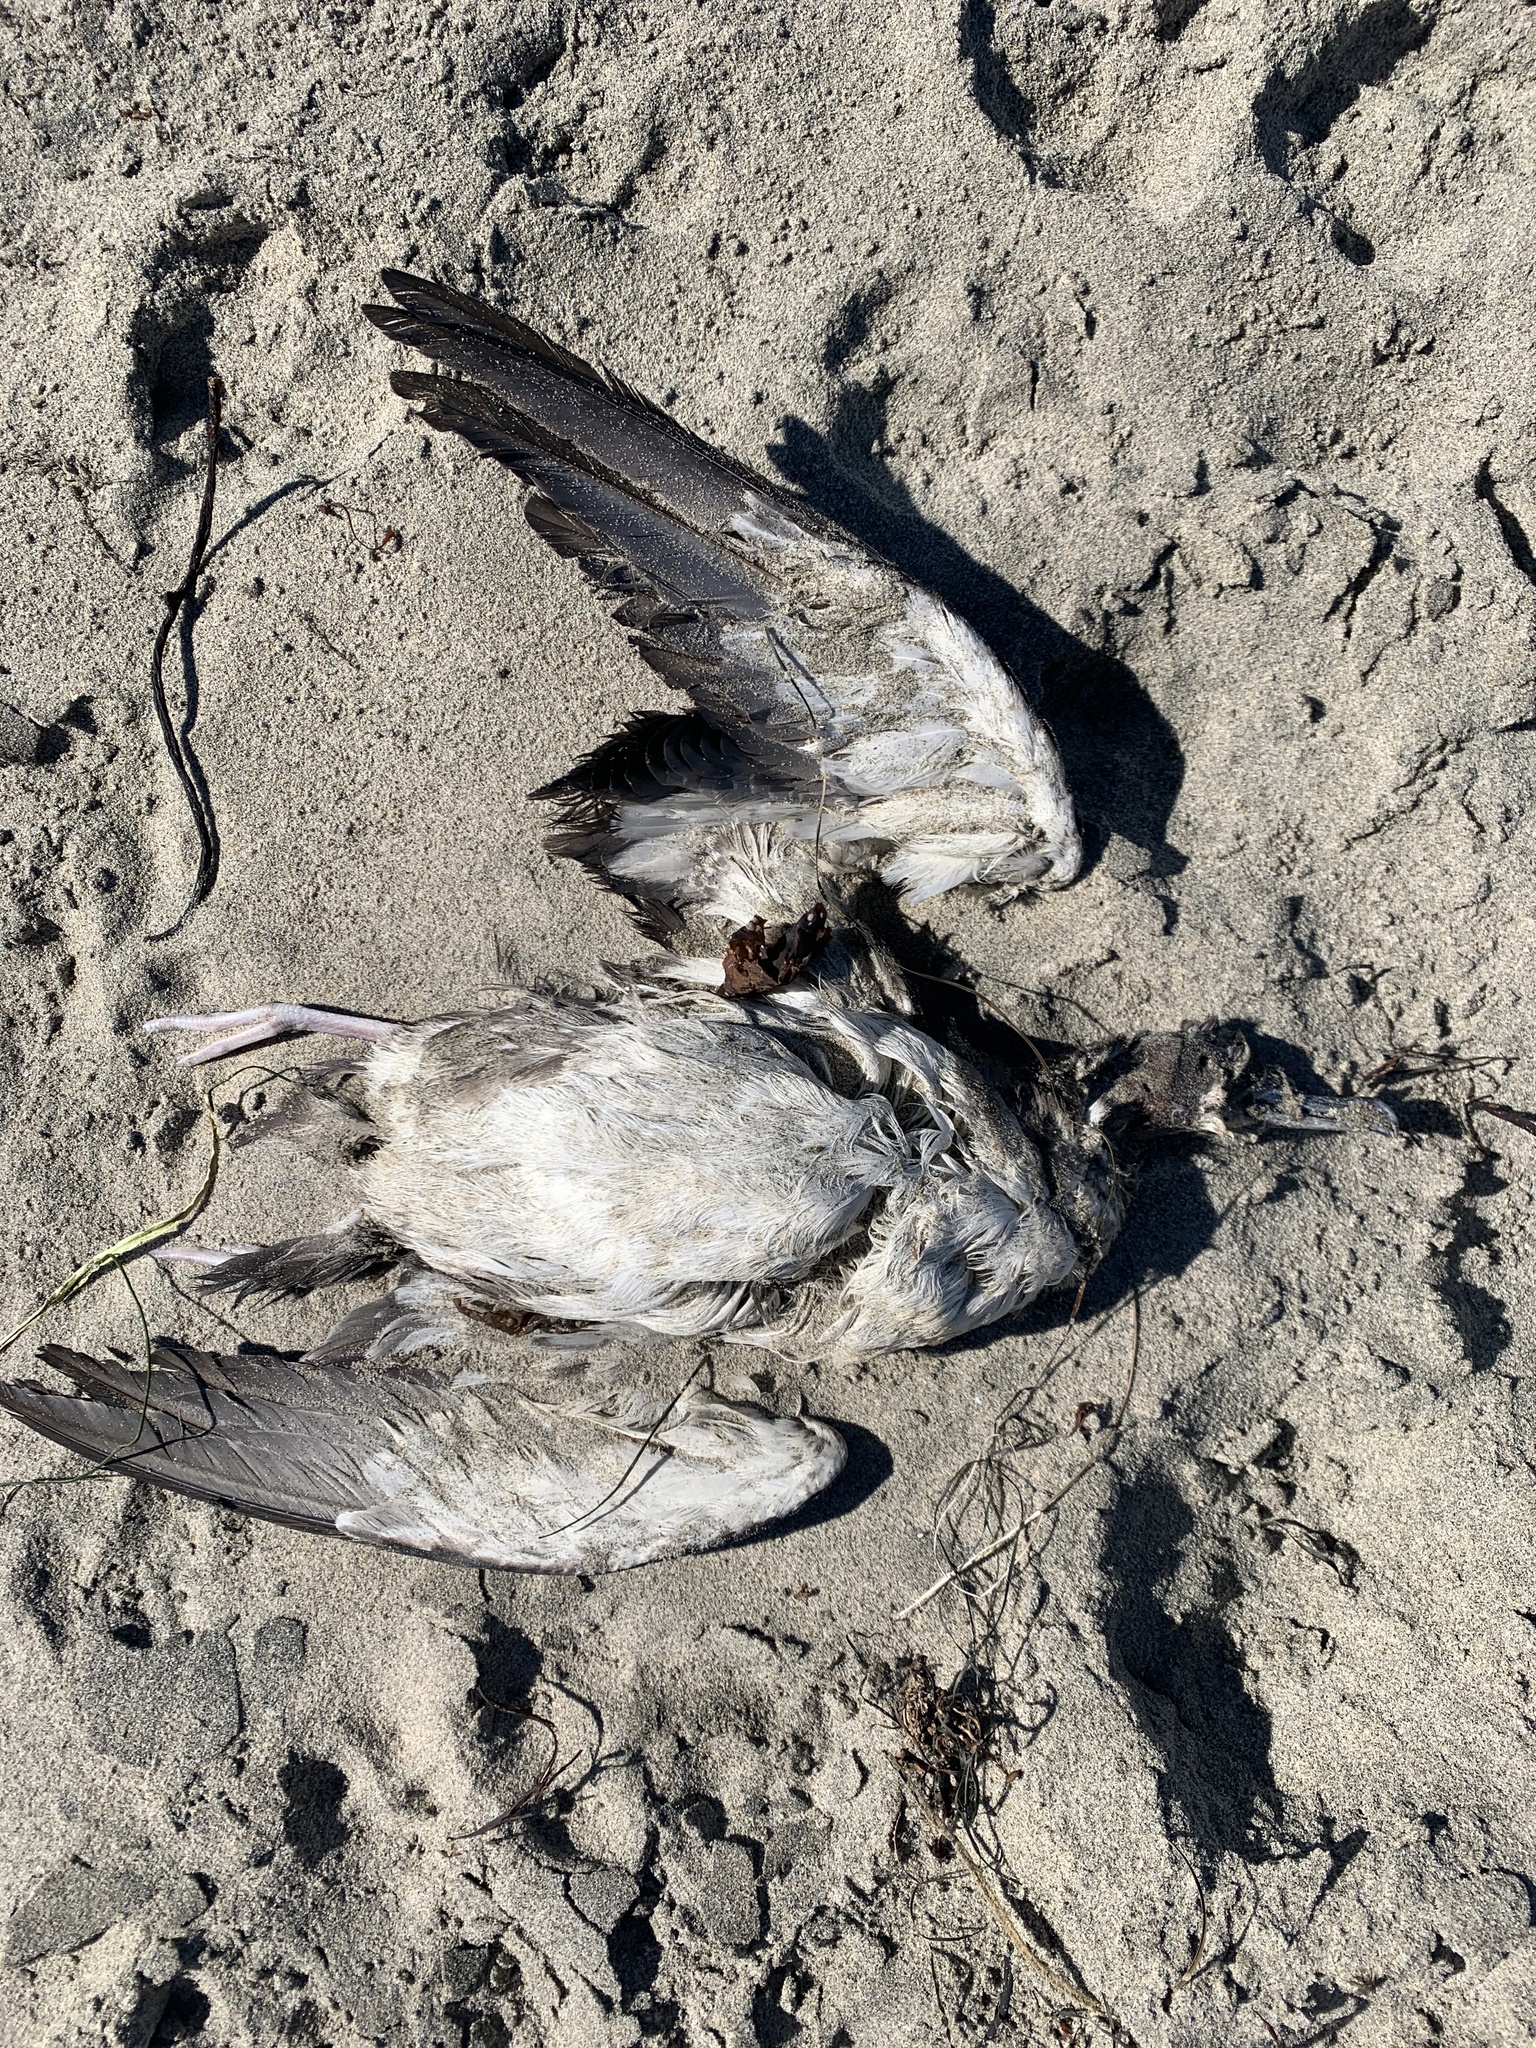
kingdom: Animalia
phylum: Chordata
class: Aves
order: Procellariiformes
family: Procellariidae
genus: Puffinus
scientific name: Puffinus opisthomelas
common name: Black-vented shearwater
